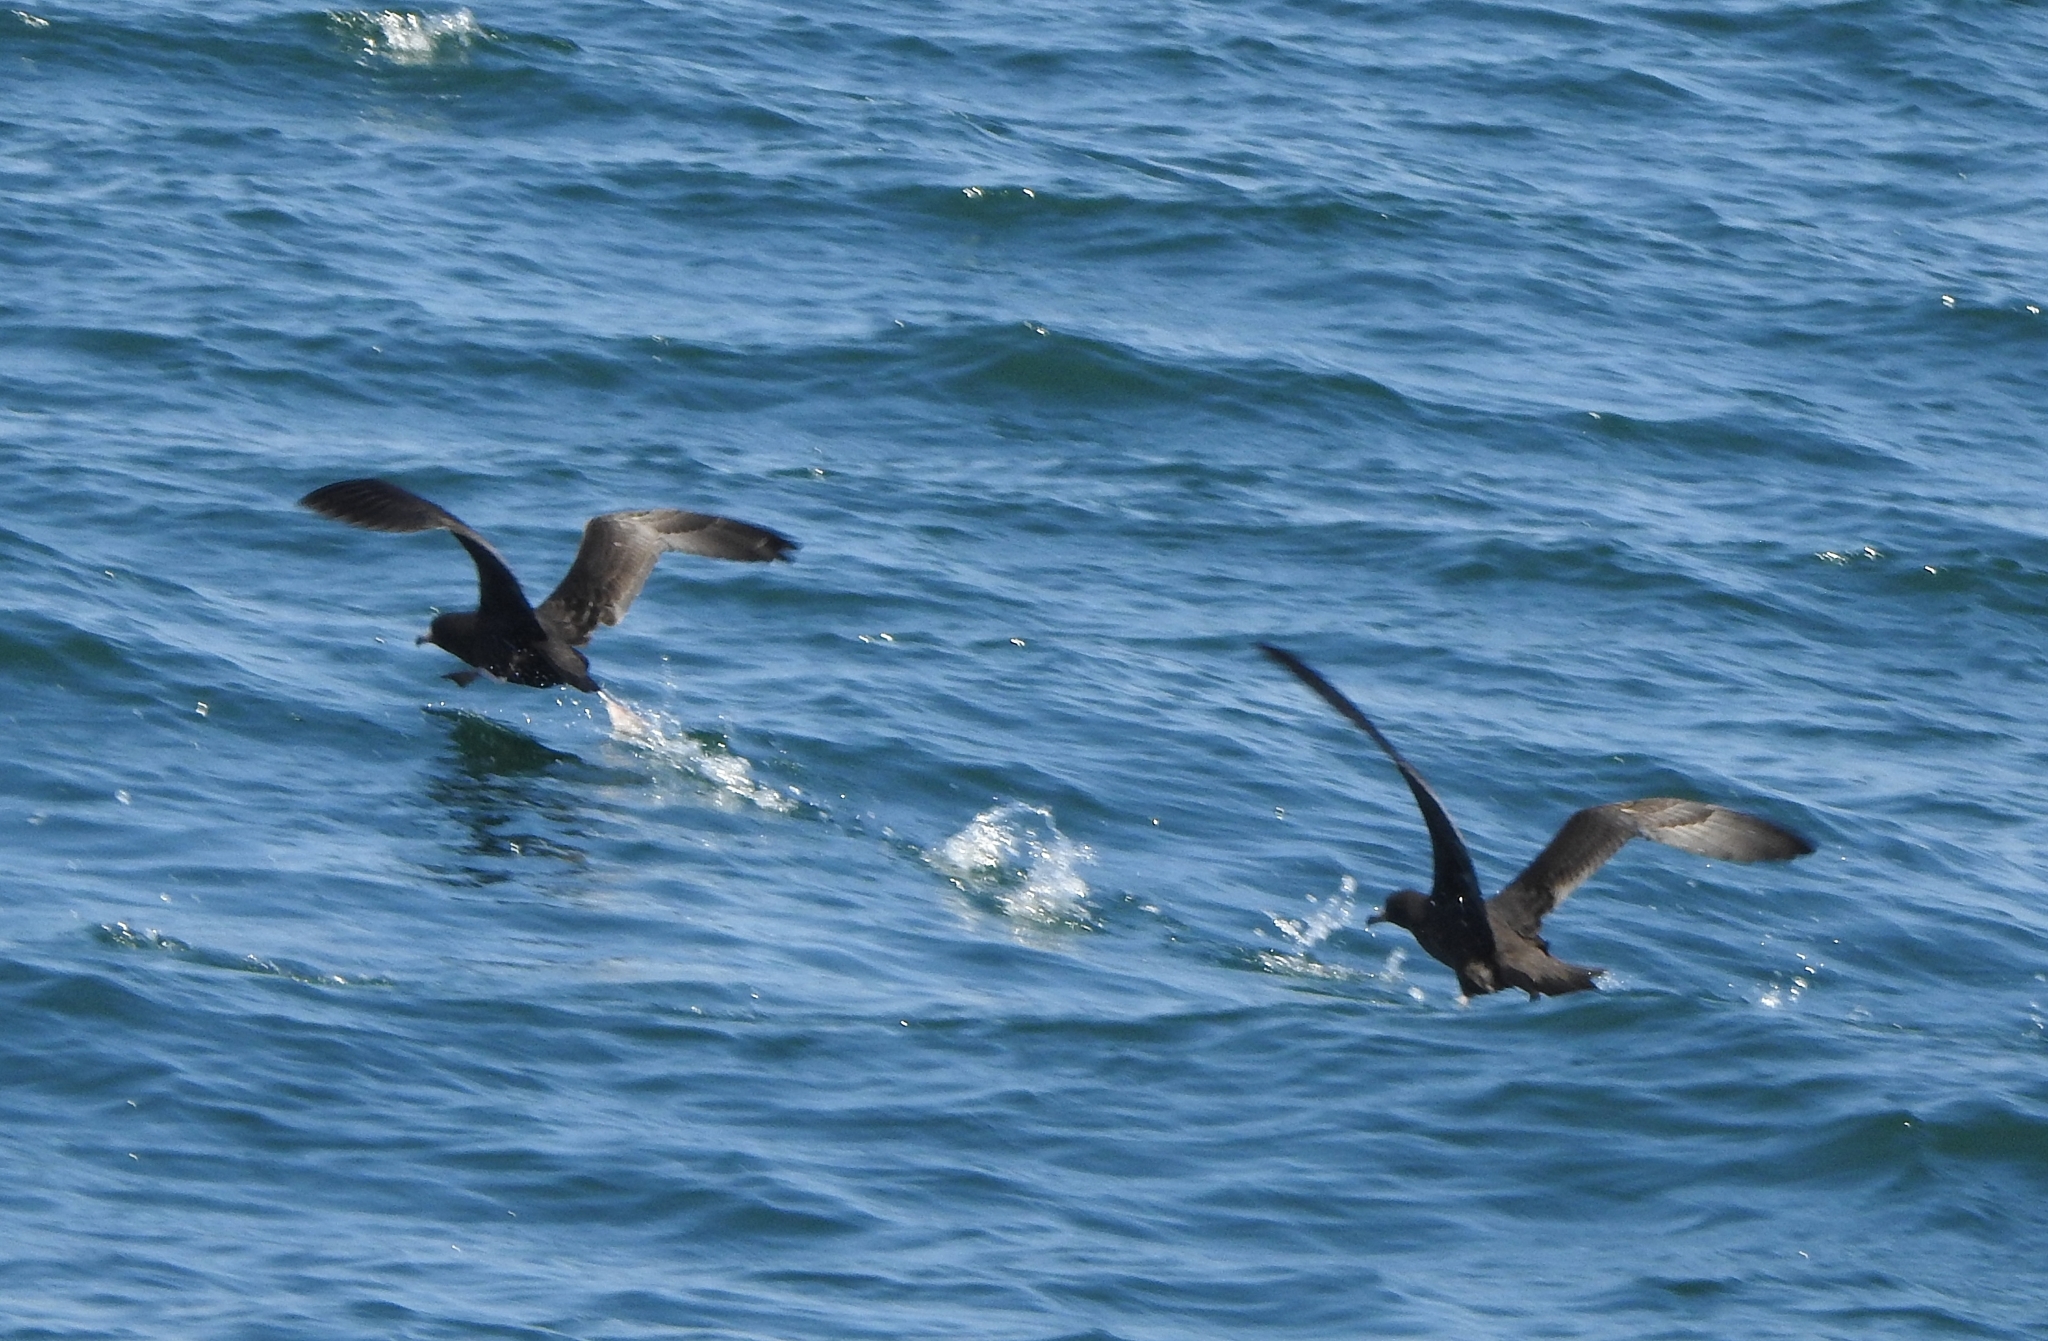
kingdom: Animalia
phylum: Chordata
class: Aves
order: Procellariiformes
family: Procellariidae
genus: Puffinus
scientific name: Puffinus carneipes
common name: Flesh-footed shearwater
